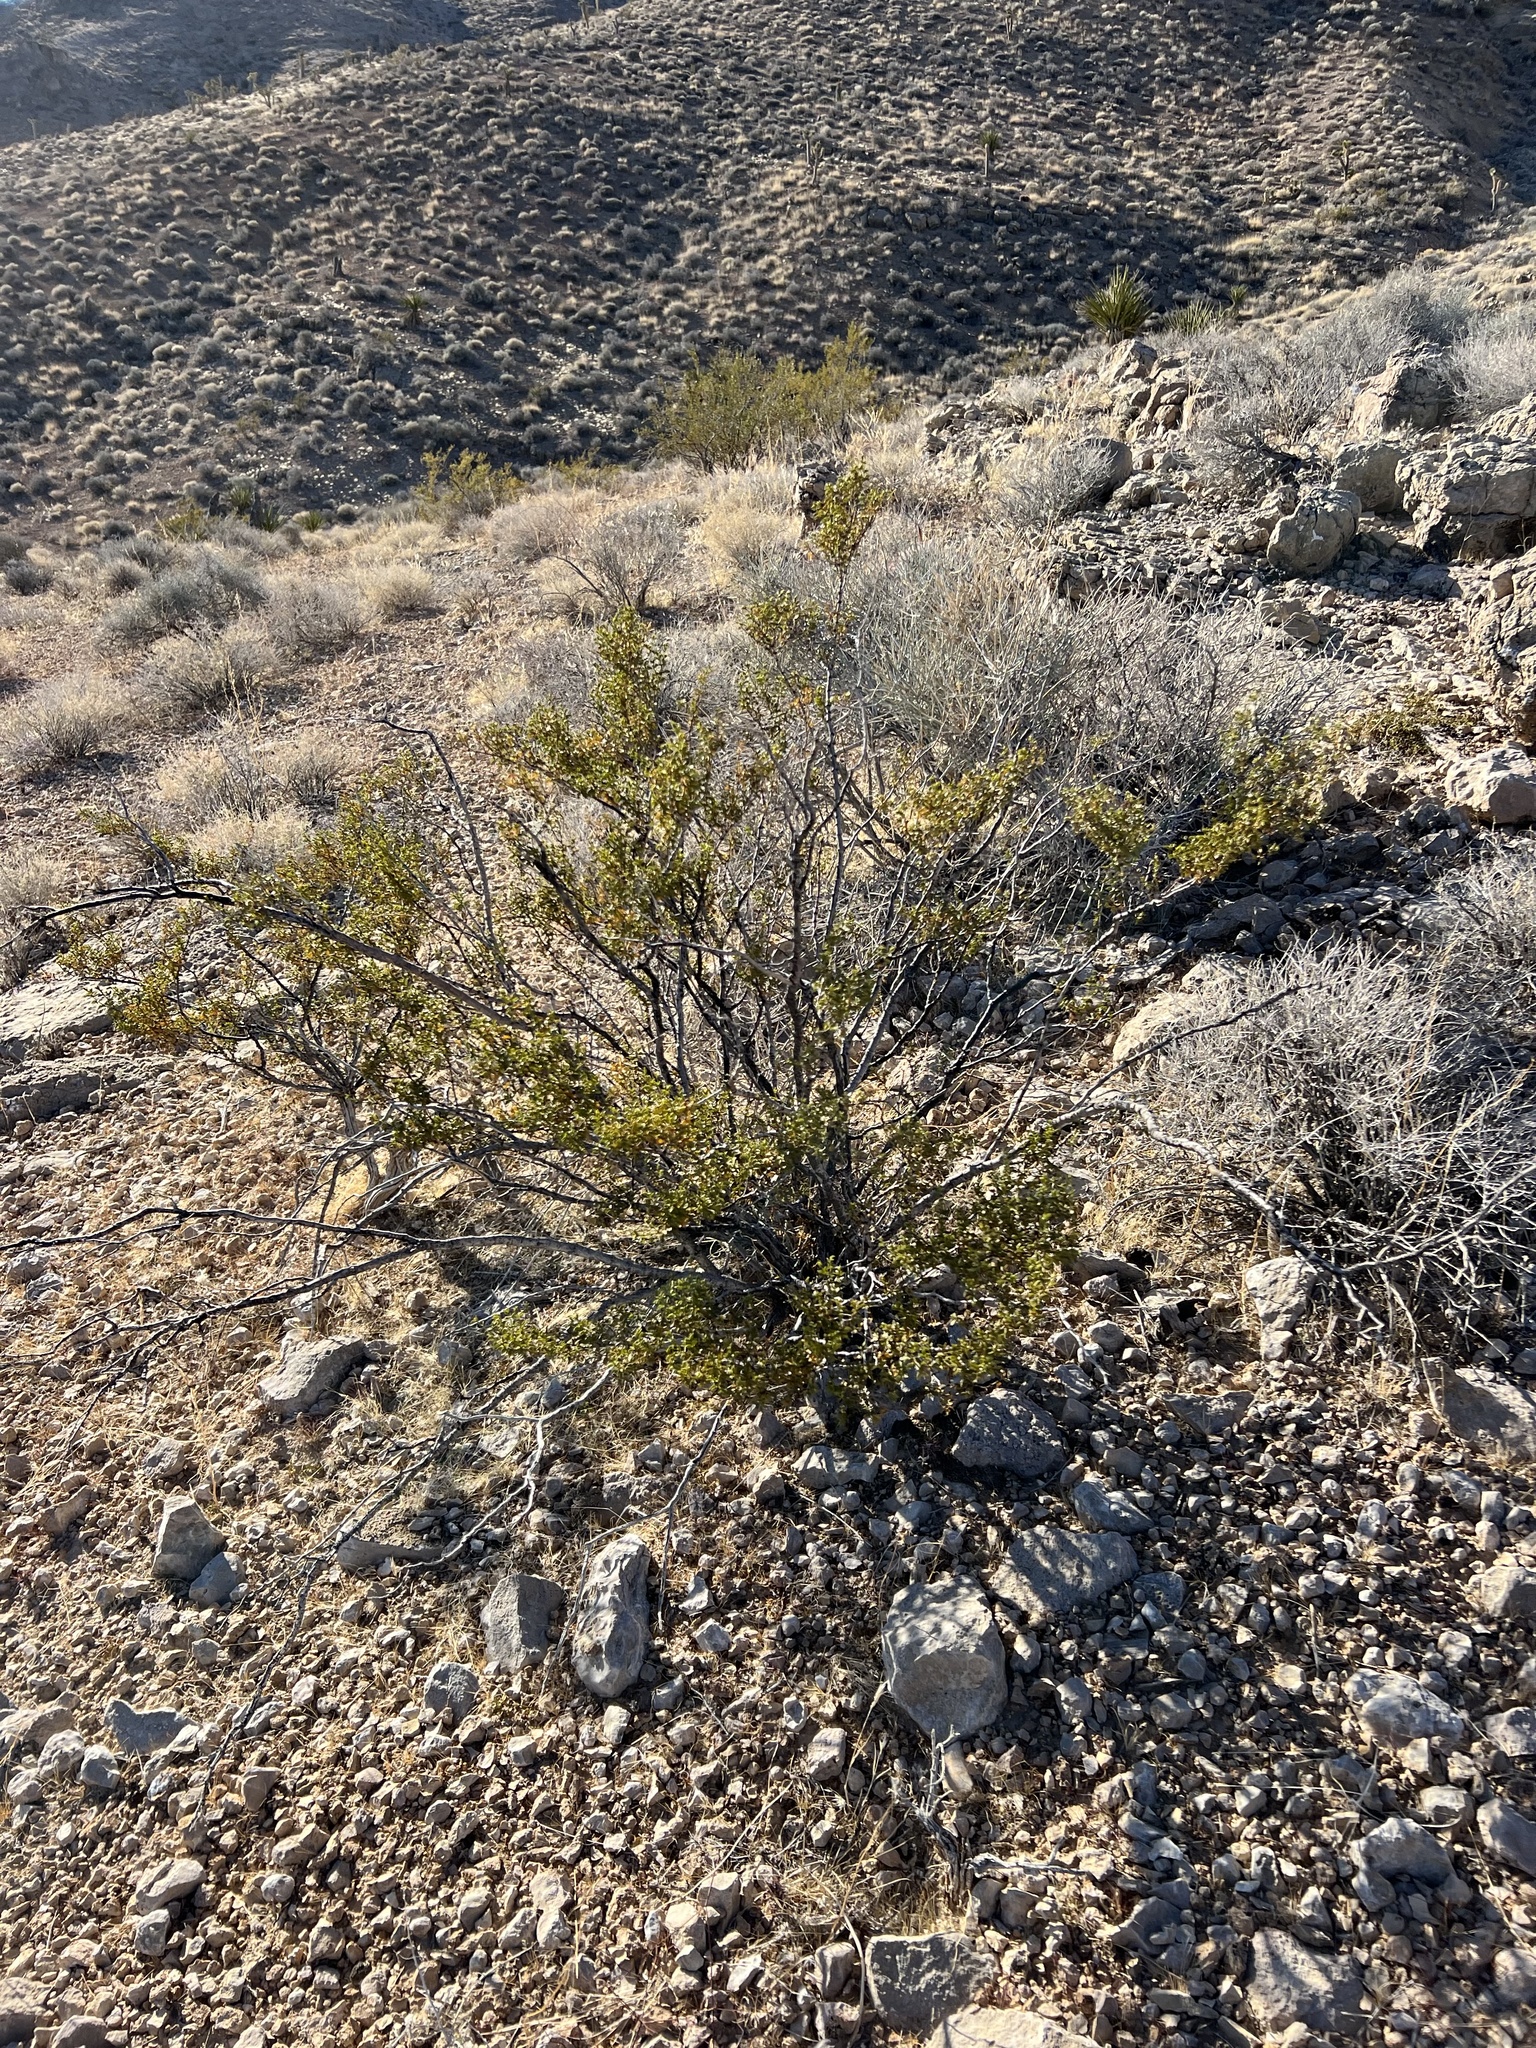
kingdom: Plantae
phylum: Tracheophyta
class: Magnoliopsida
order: Zygophyllales
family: Zygophyllaceae
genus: Larrea
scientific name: Larrea tridentata
